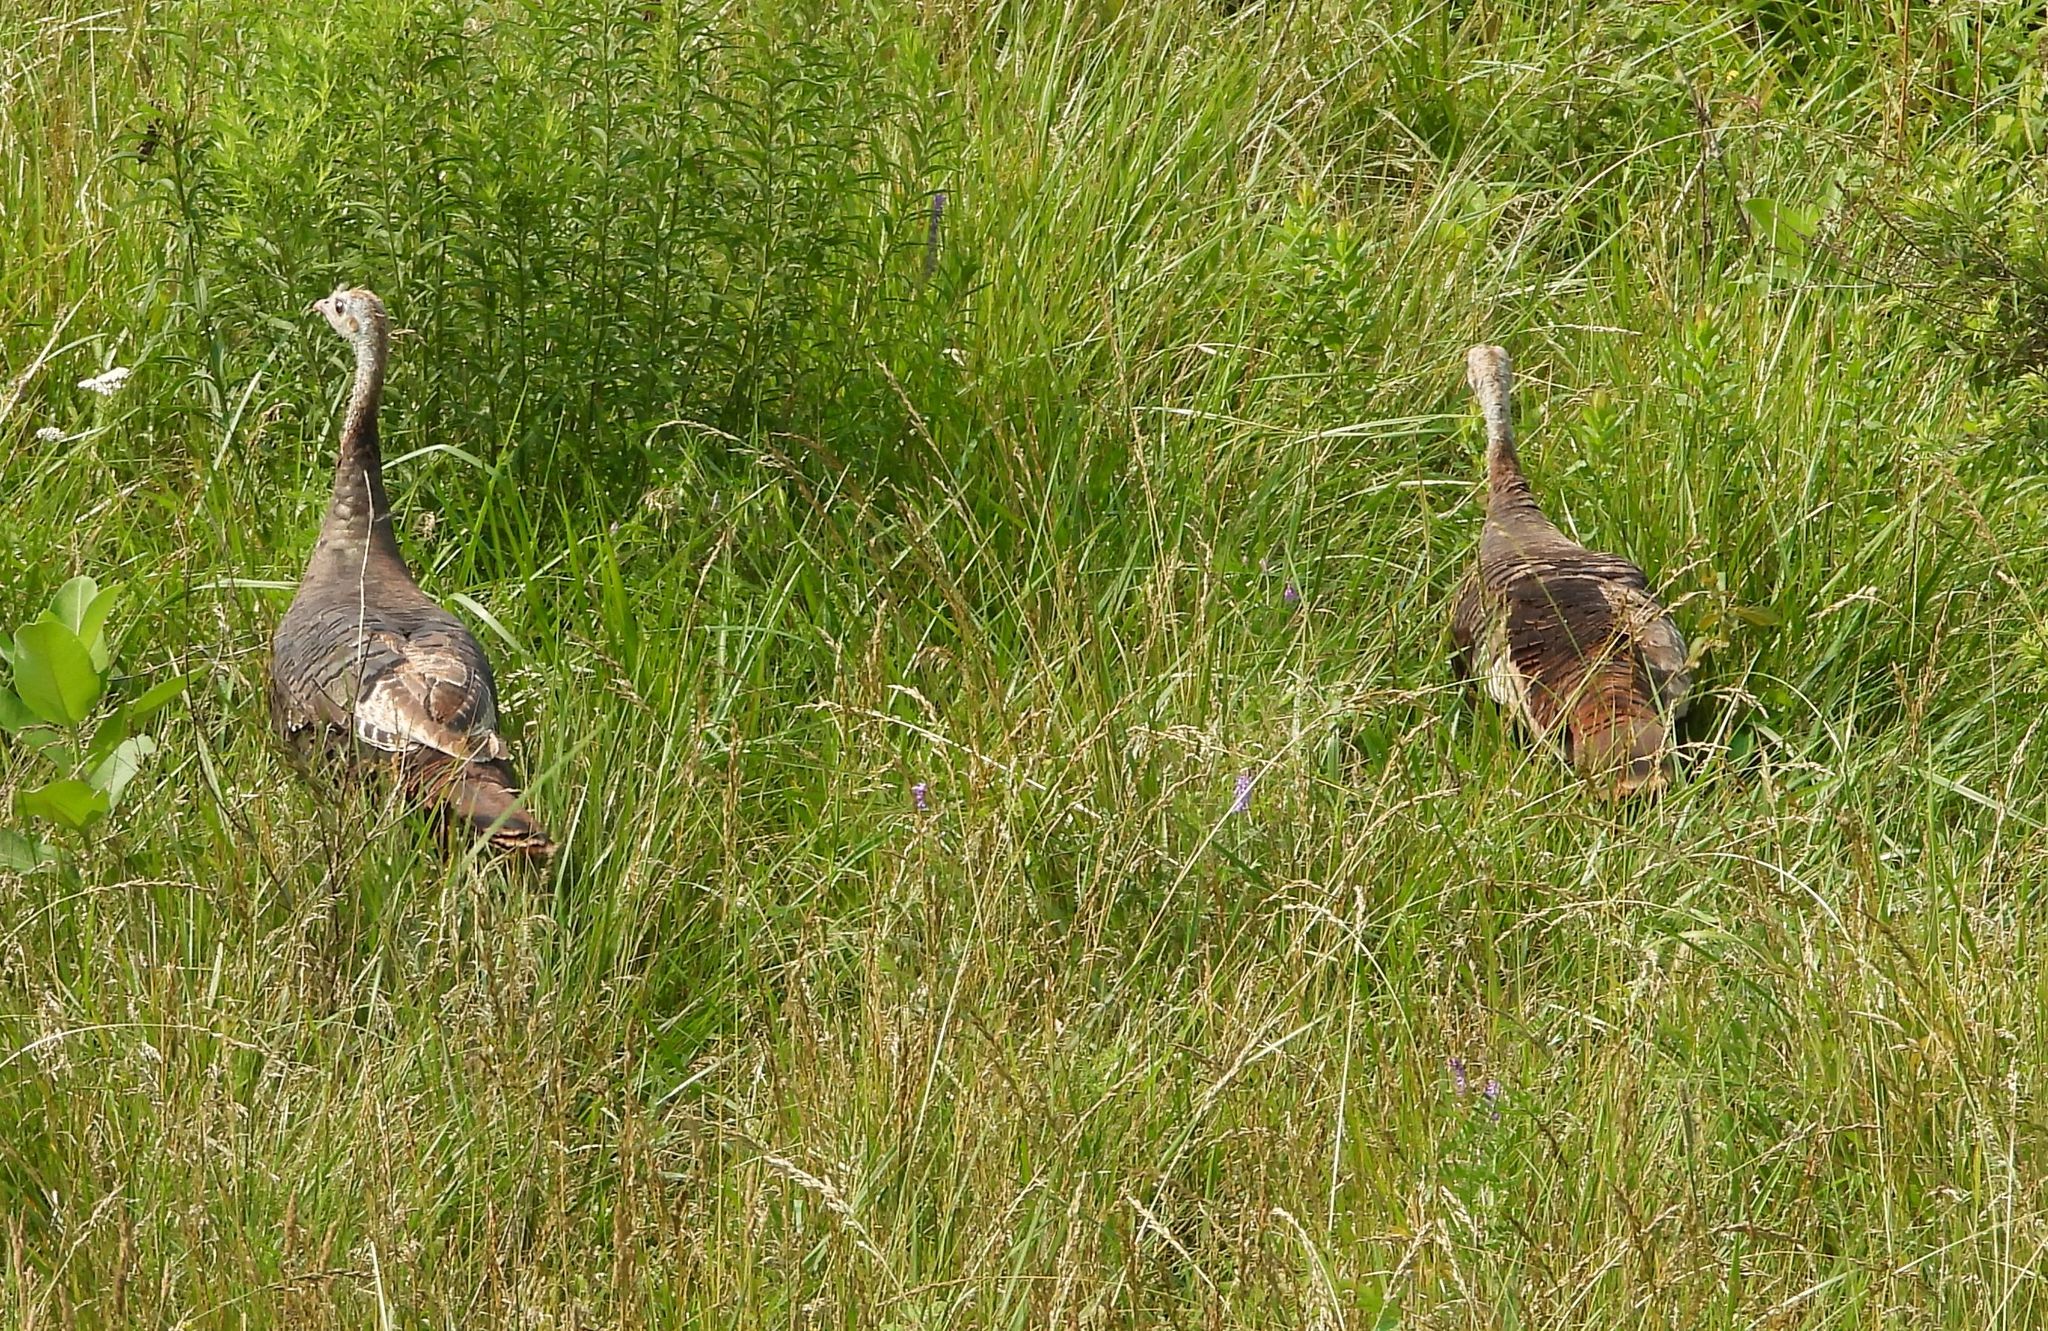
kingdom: Animalia
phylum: Chordata
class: Aves
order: Galliformes
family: Phasianidae
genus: Meleagris
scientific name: Meleagris gallopavo
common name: Wild turkey
